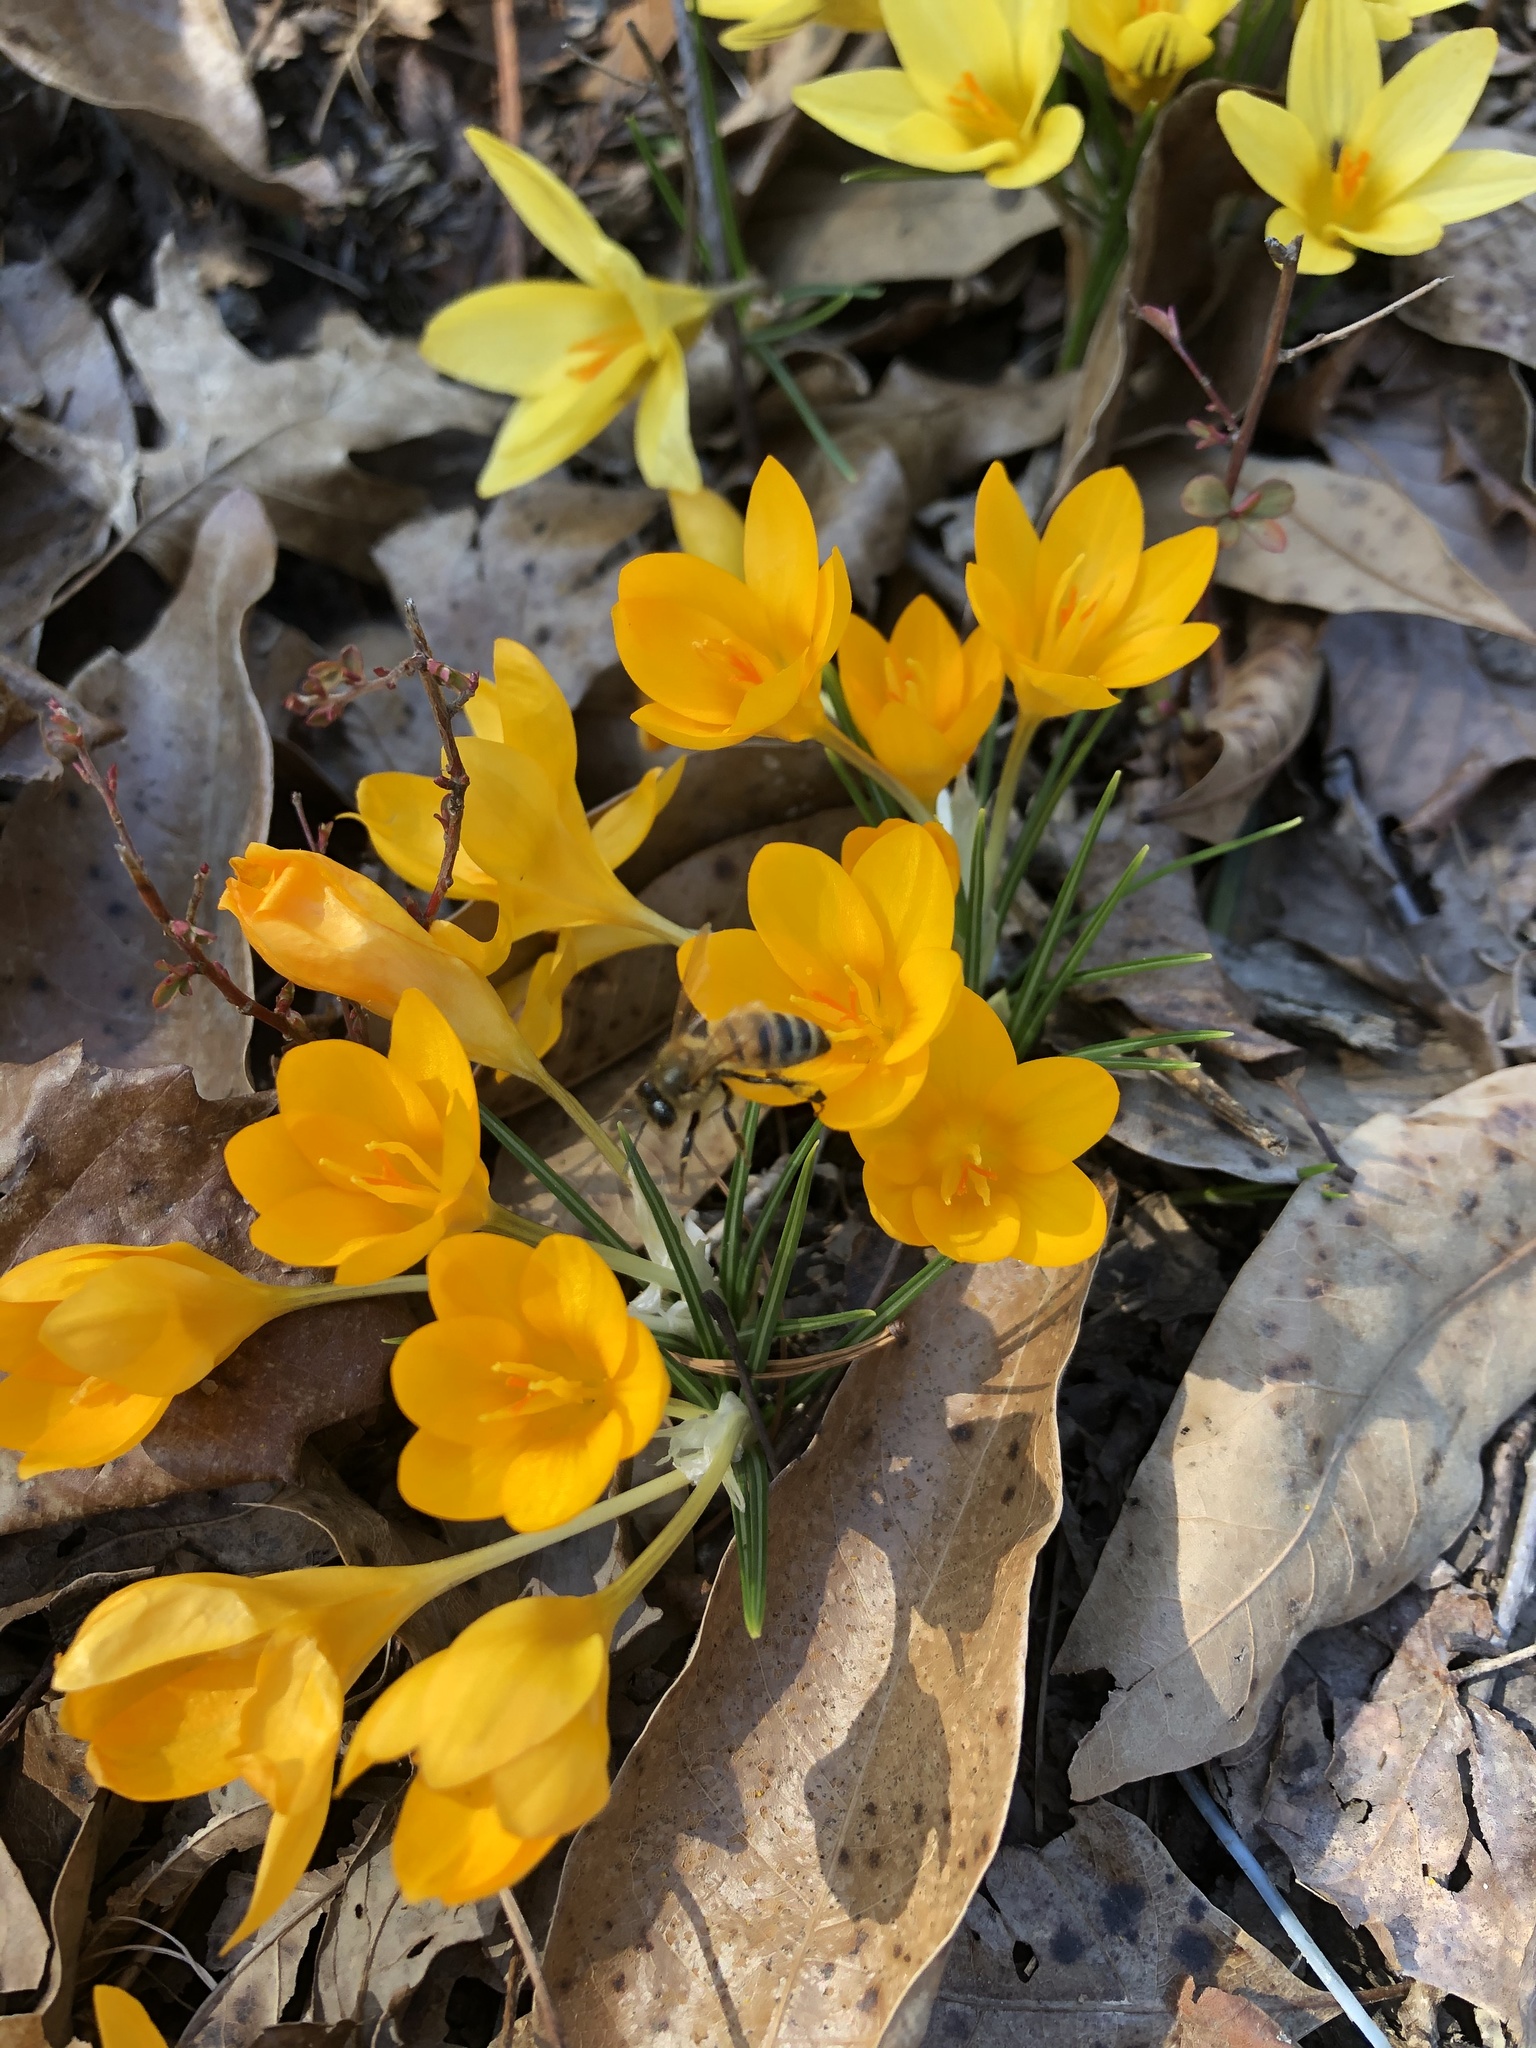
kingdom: Animalia
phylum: Arthropoda
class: Insecta
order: Hymenoptera
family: Apidae
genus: Apis
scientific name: Apis mellifera
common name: Honey bee
